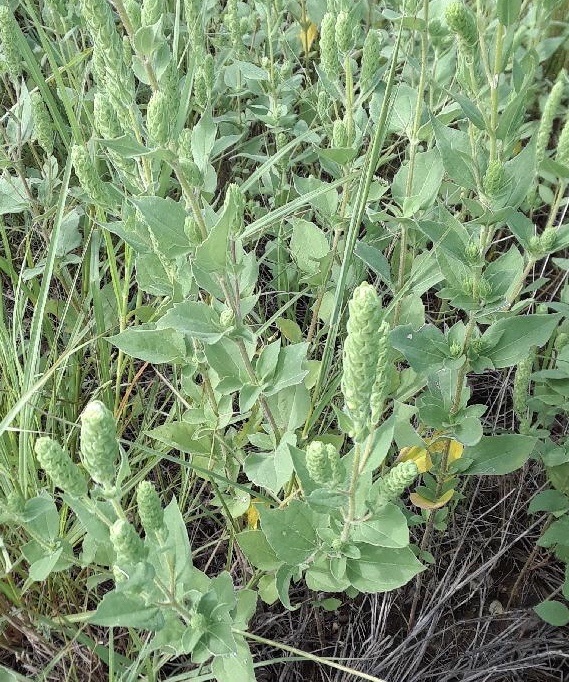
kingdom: Plantae
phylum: Tracheophyta
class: Magnoliopsida
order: Asterales
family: Asteraceae
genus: Iva
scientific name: Iva annua
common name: Marsh-elder
